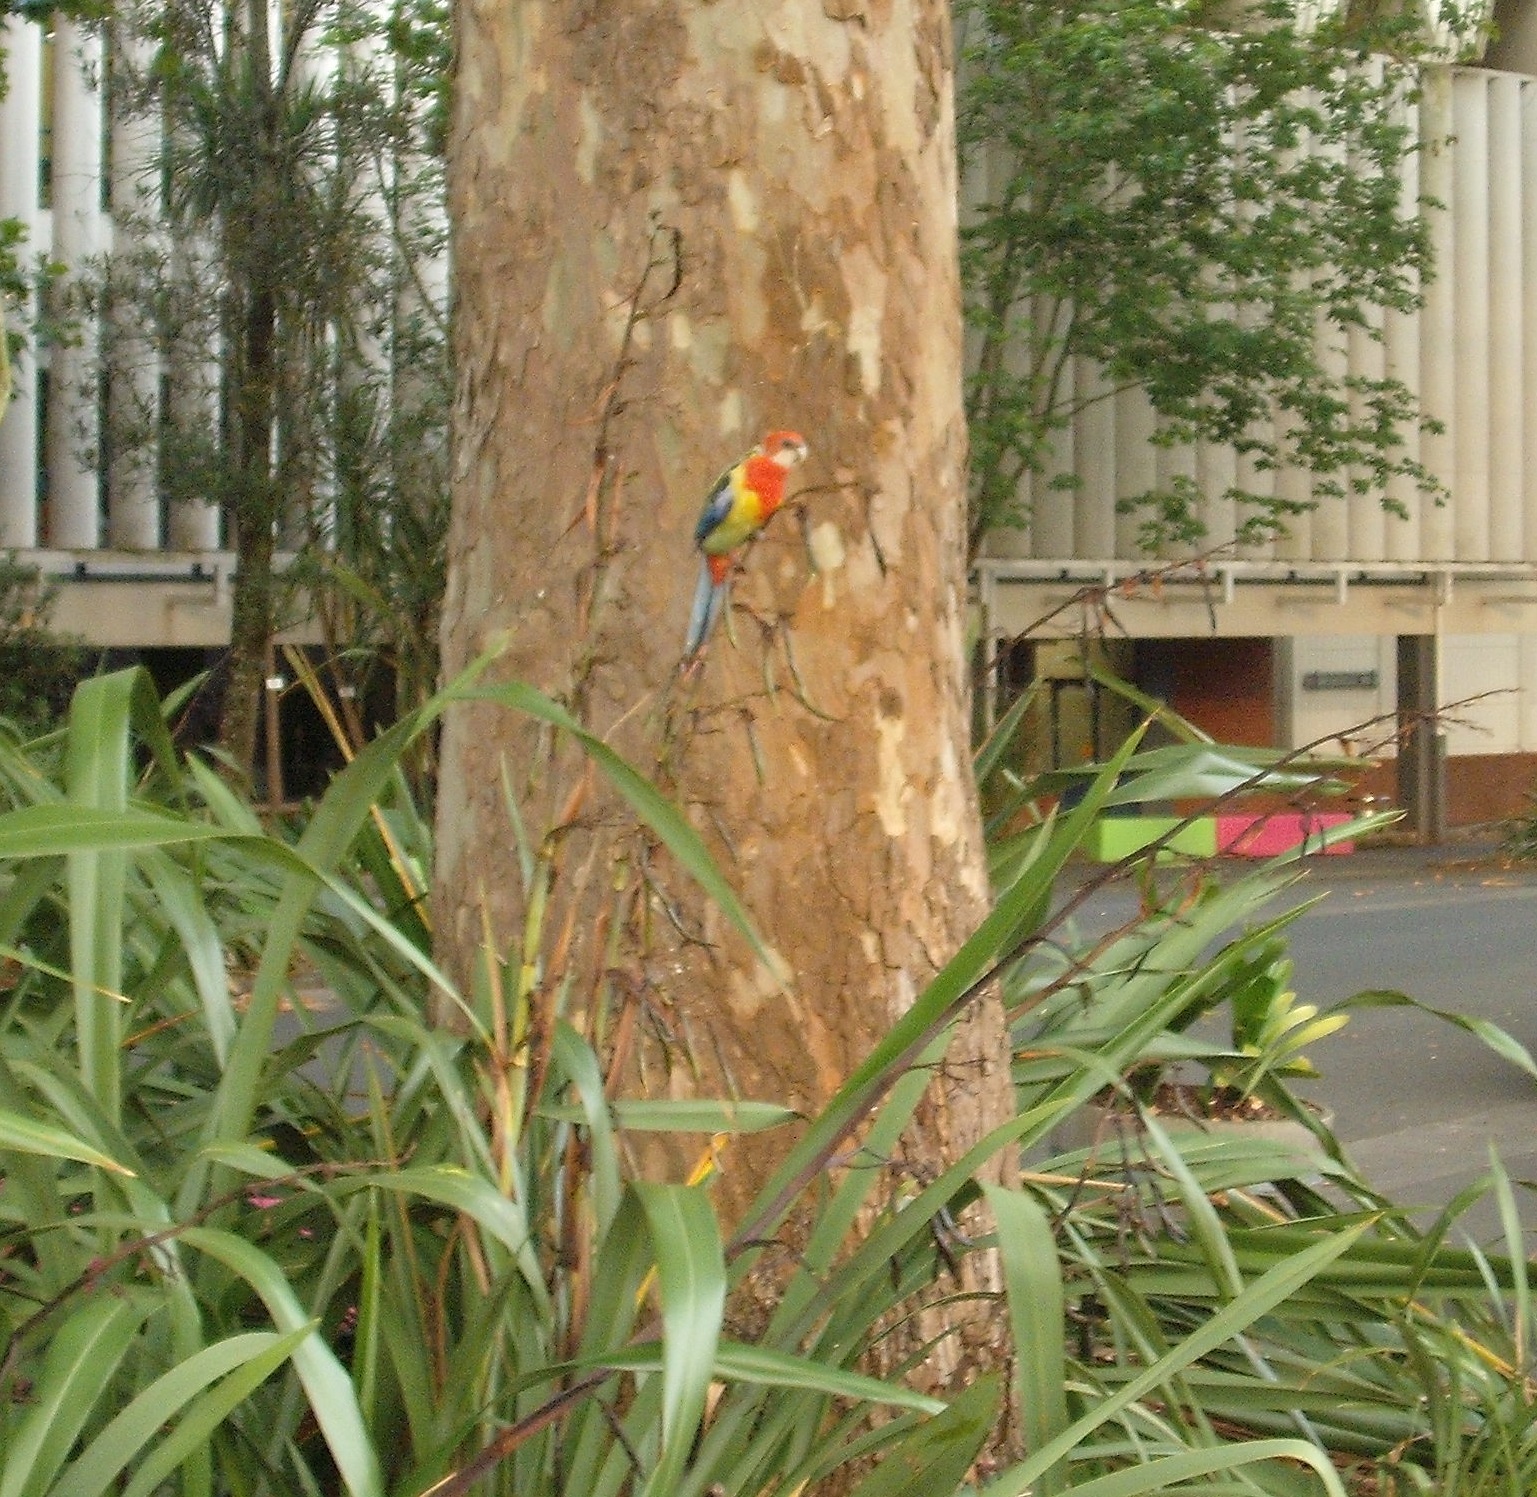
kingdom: Animalia
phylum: Chordata
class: Aves
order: Psittaciformes
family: Psittacidae
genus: Platycercus
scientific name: Platycercus eximius
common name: Eastern rosella
